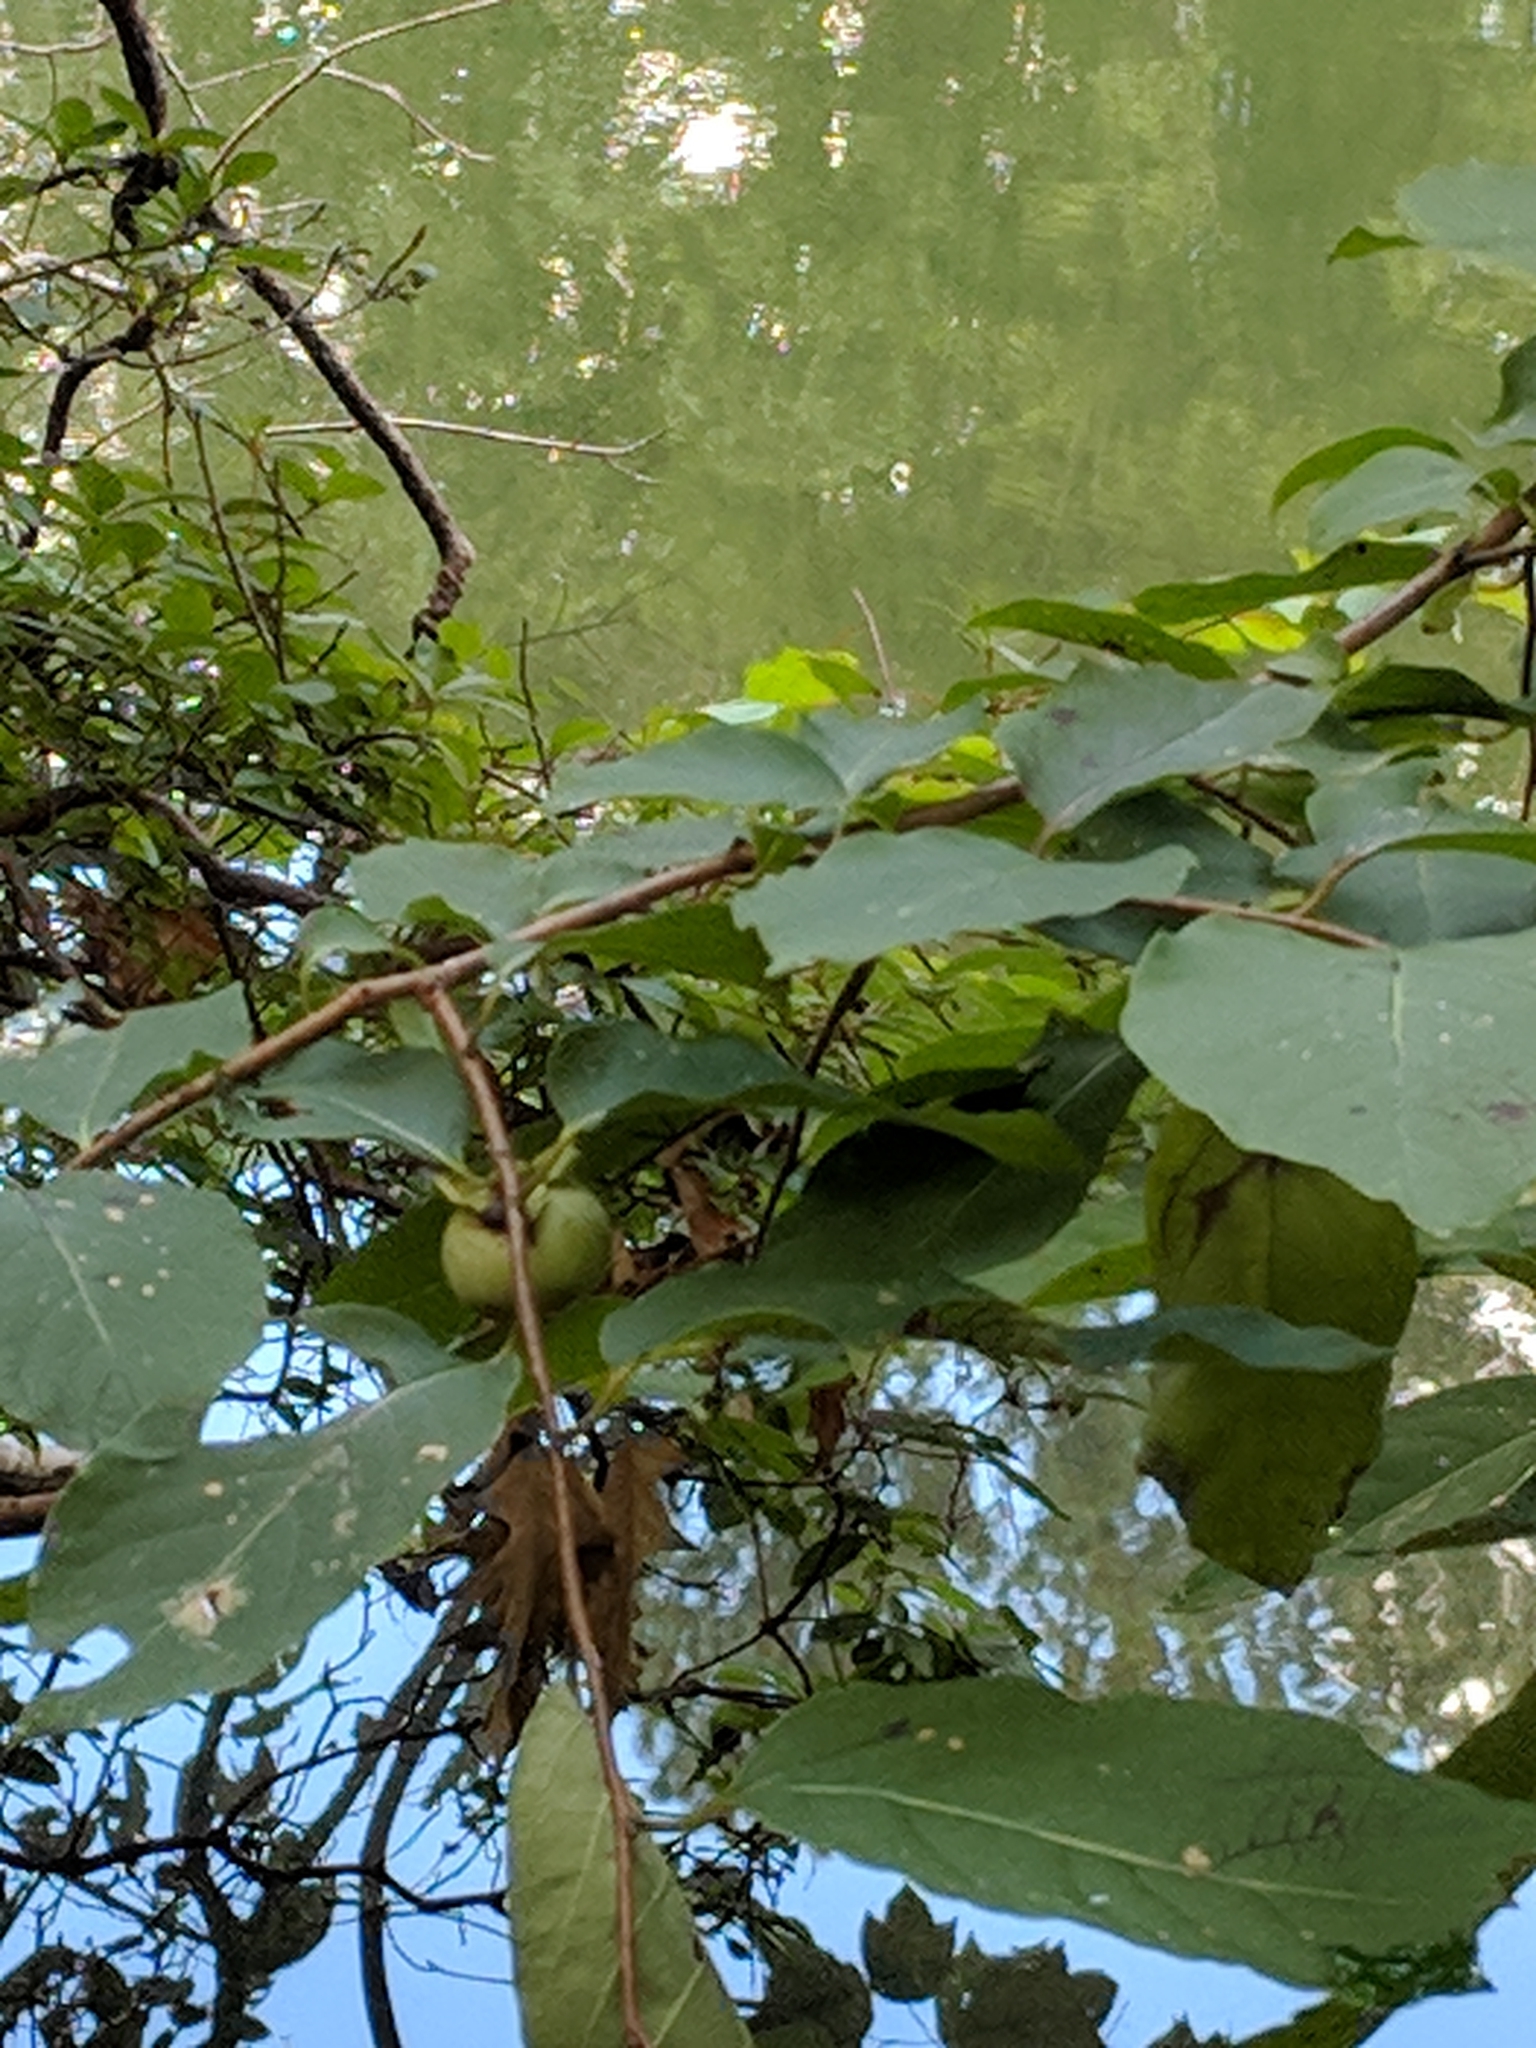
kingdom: Plantae
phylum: Tracheophyta
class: Magnoliopsida
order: Ericales
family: Ebenaceae
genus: Diospyros
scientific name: Diospyros virginiana
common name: Persimmon
